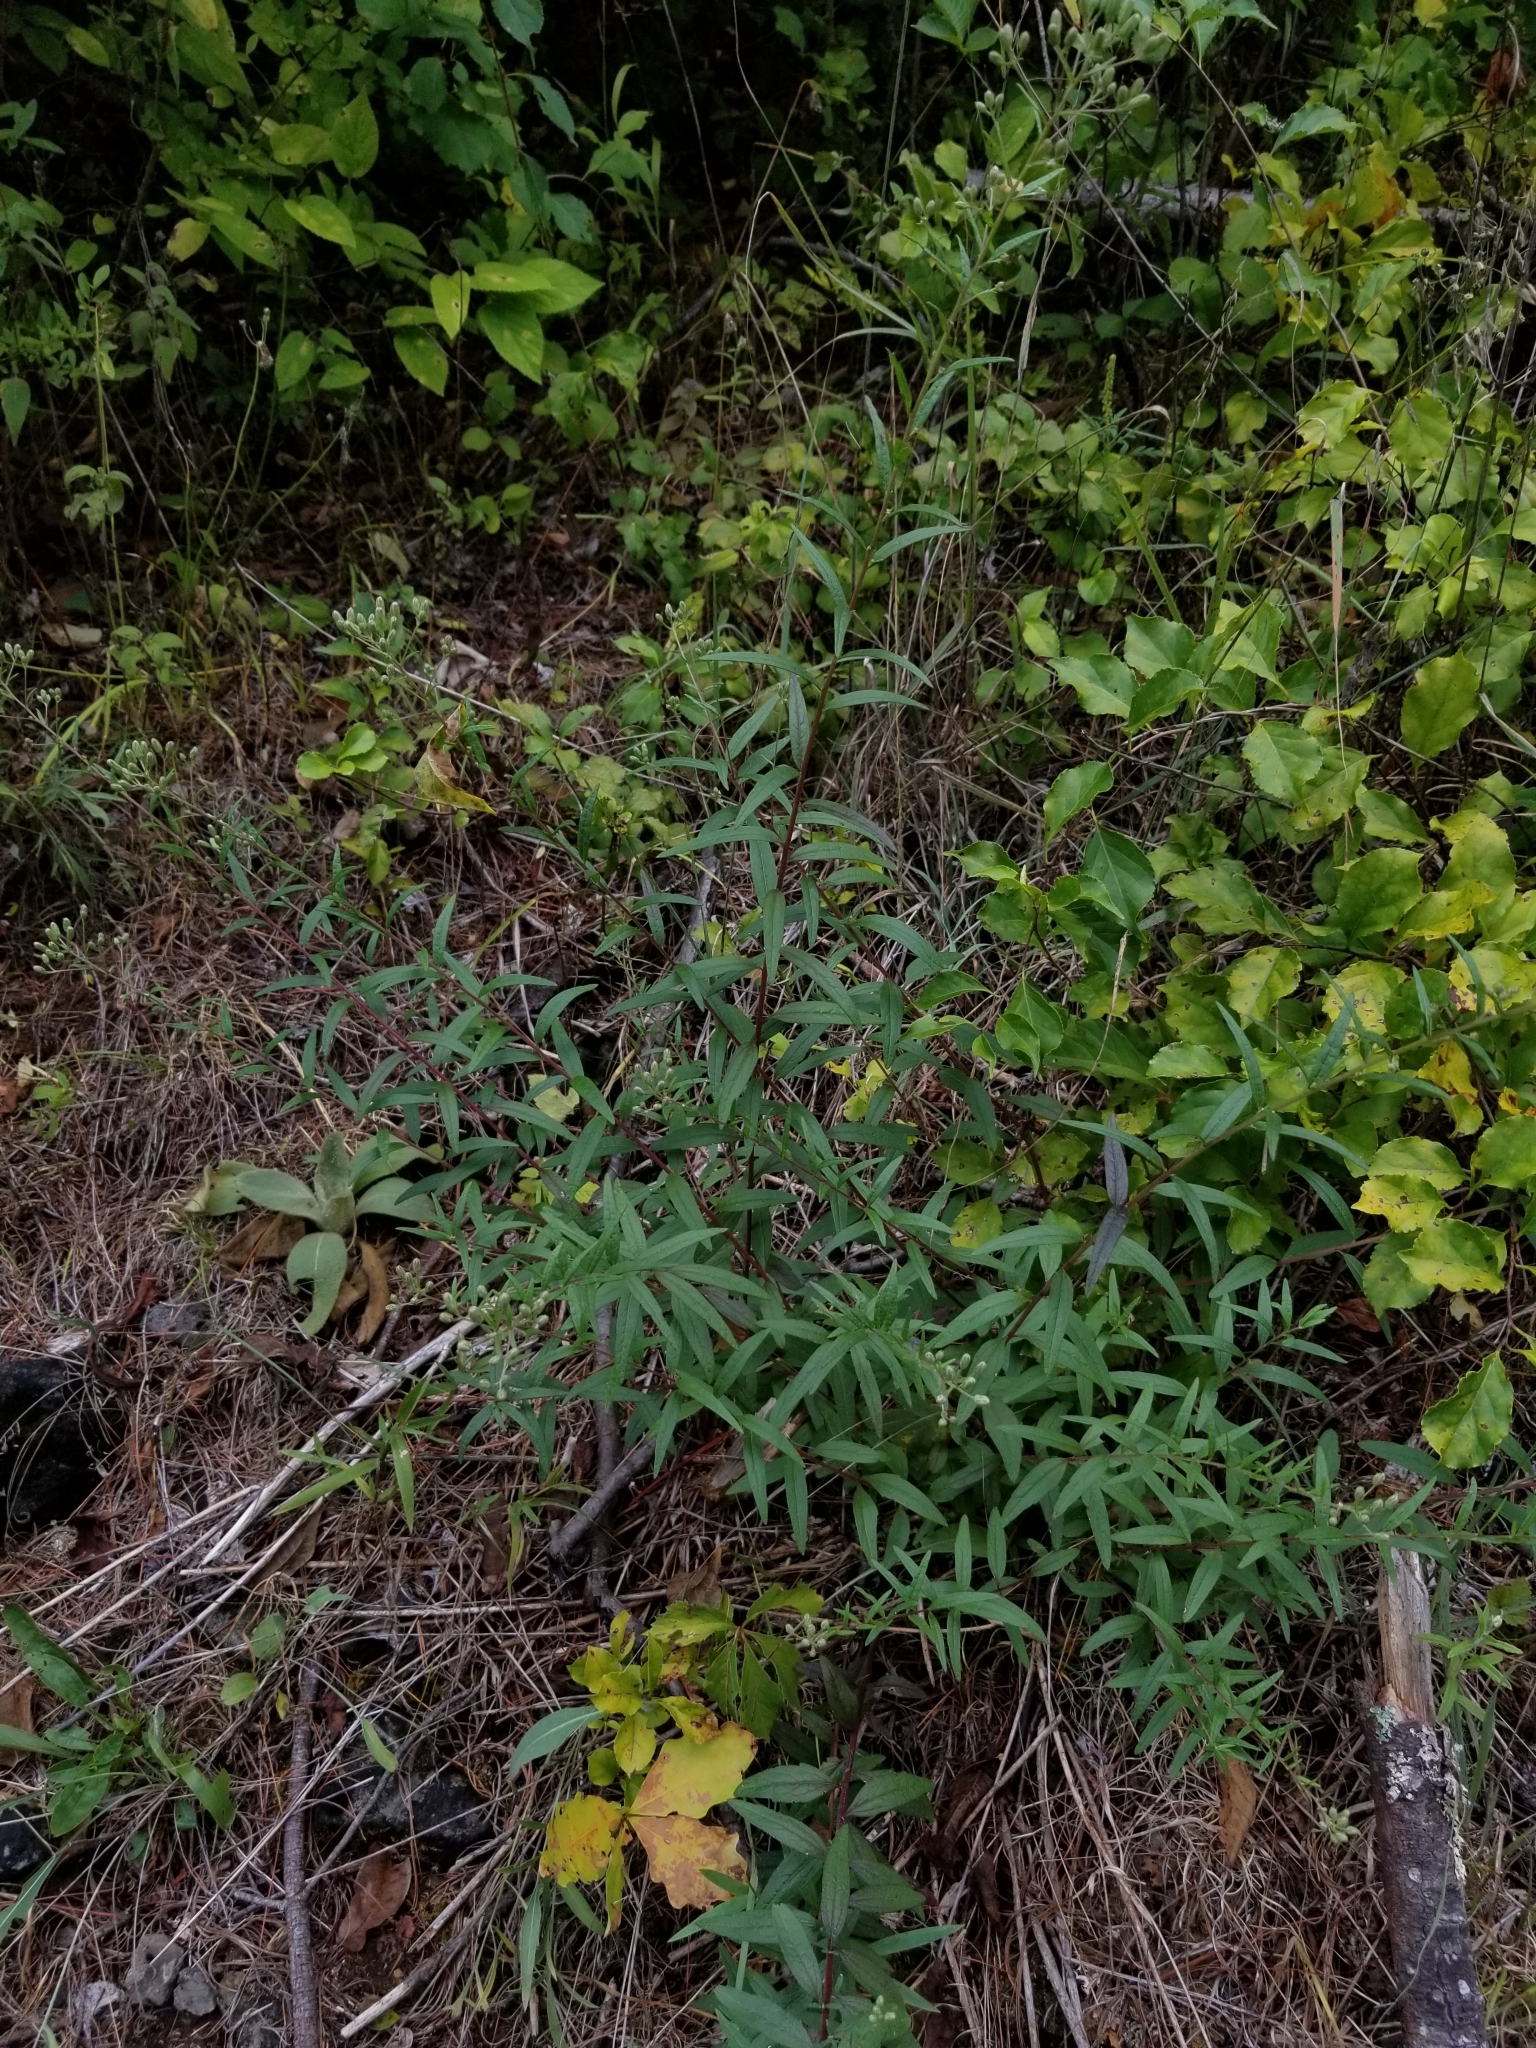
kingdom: Plantae
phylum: Tracheophyta
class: Magnoliopsida
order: Asterales
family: Asteraceae
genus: Brickellia
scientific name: Brickellia eupatorioides
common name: False boneset
